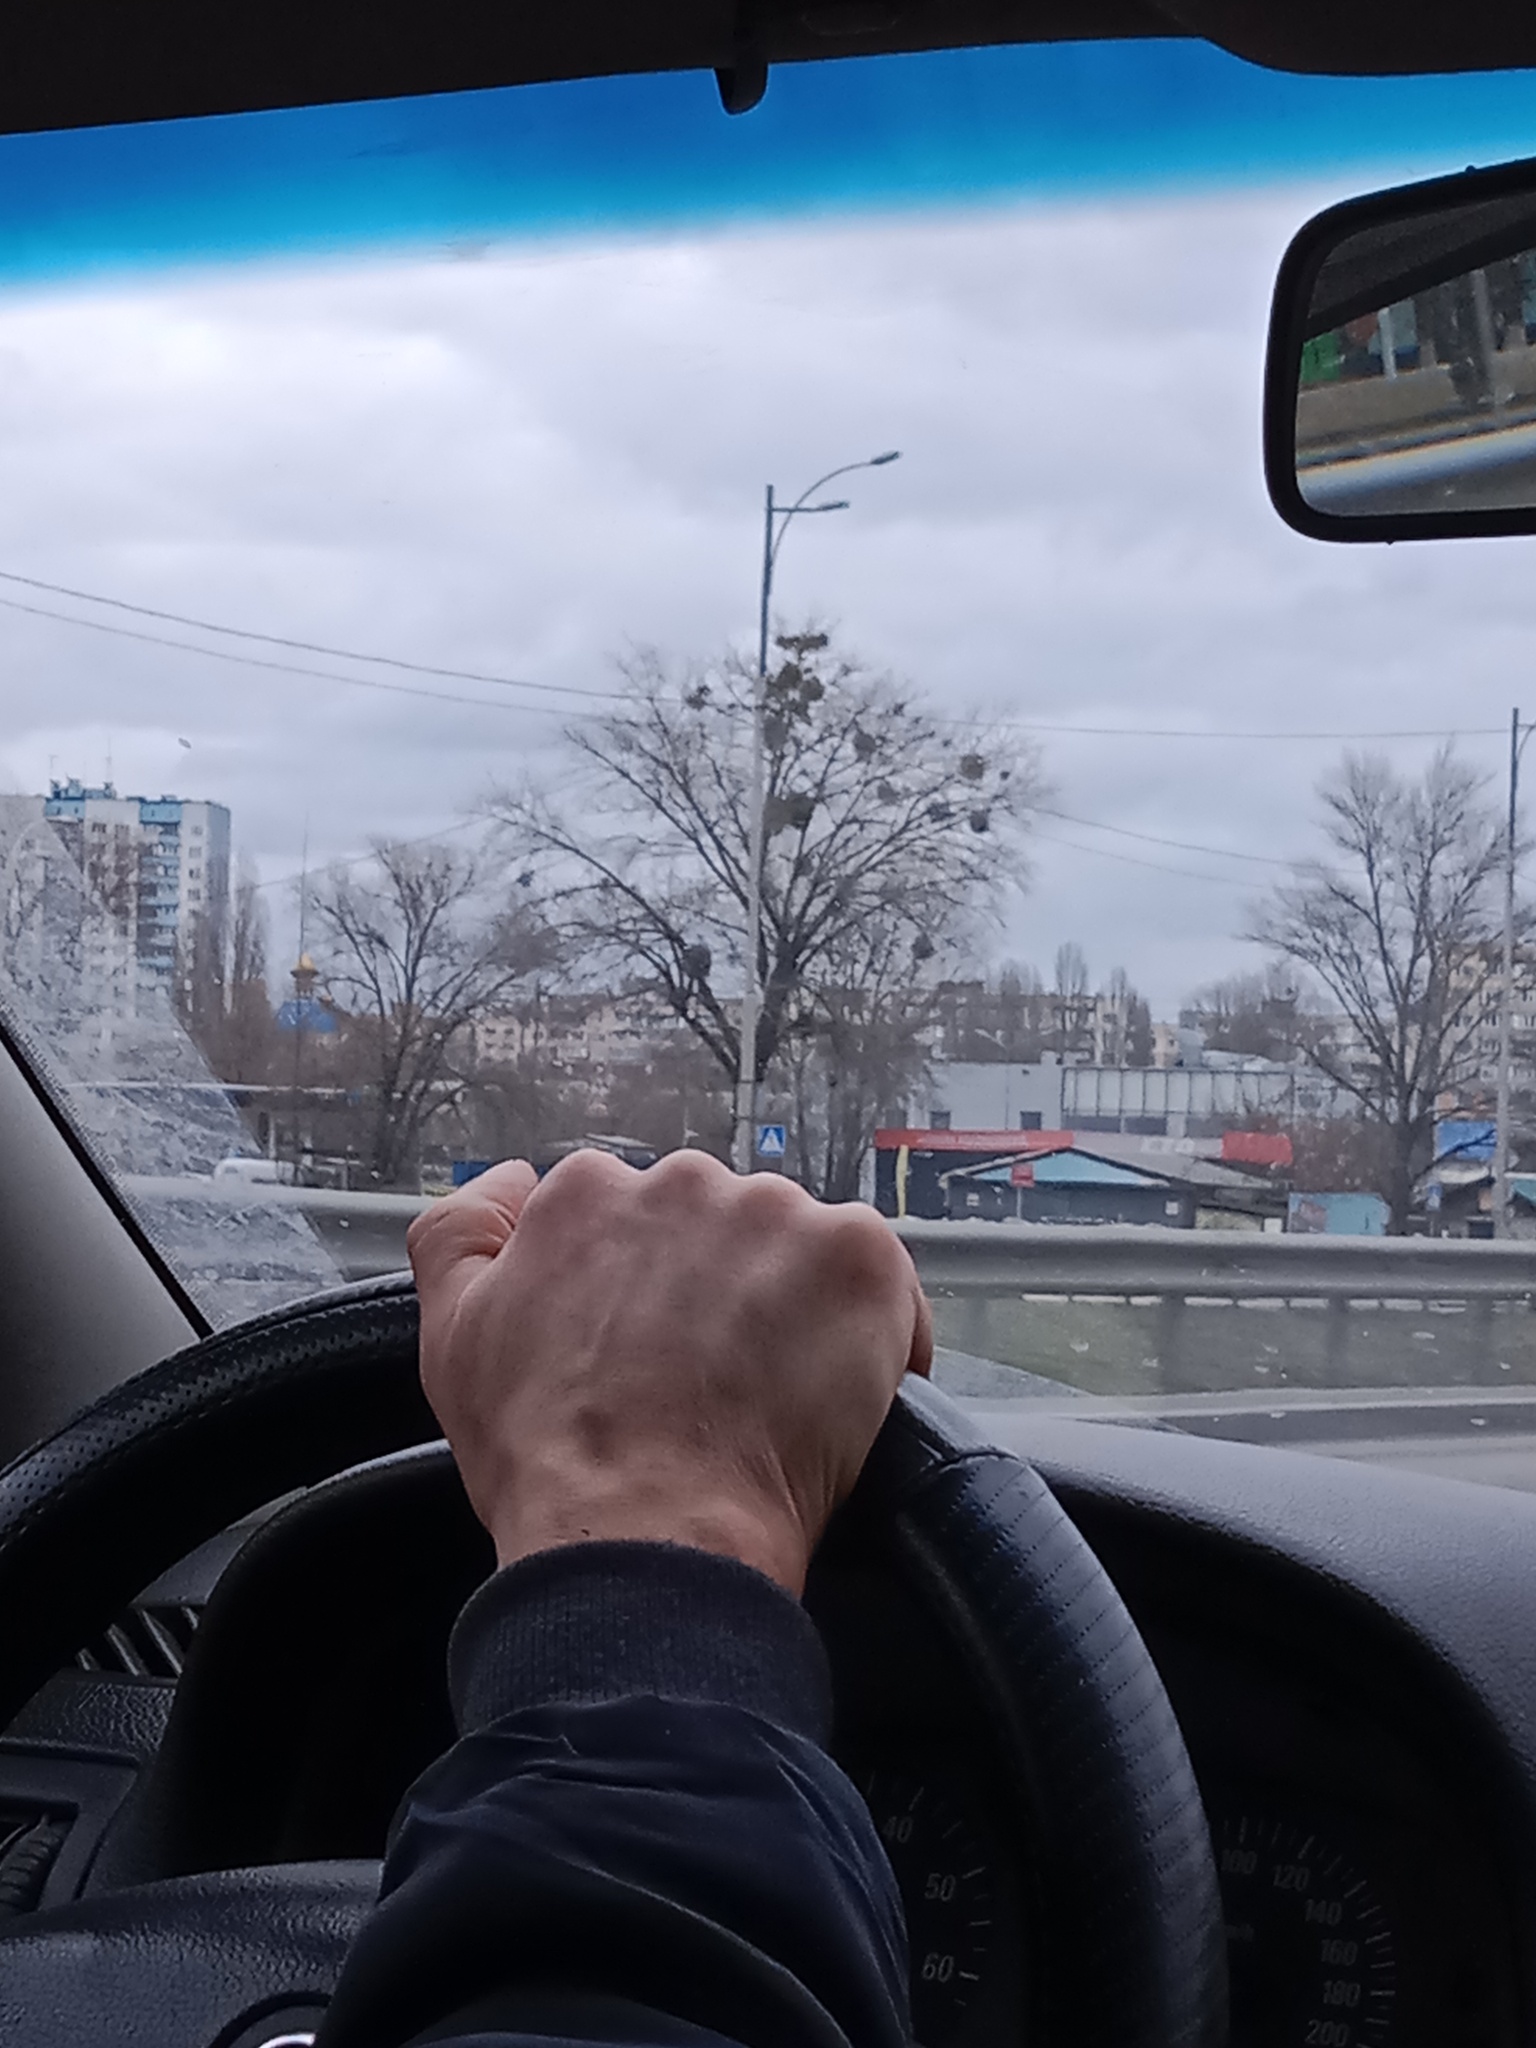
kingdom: Plantae
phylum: Tracheophyta
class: Magnoliopsida
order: Santalales
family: Viscaceae
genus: Viscum
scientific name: Viscum album
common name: Mistletoe
